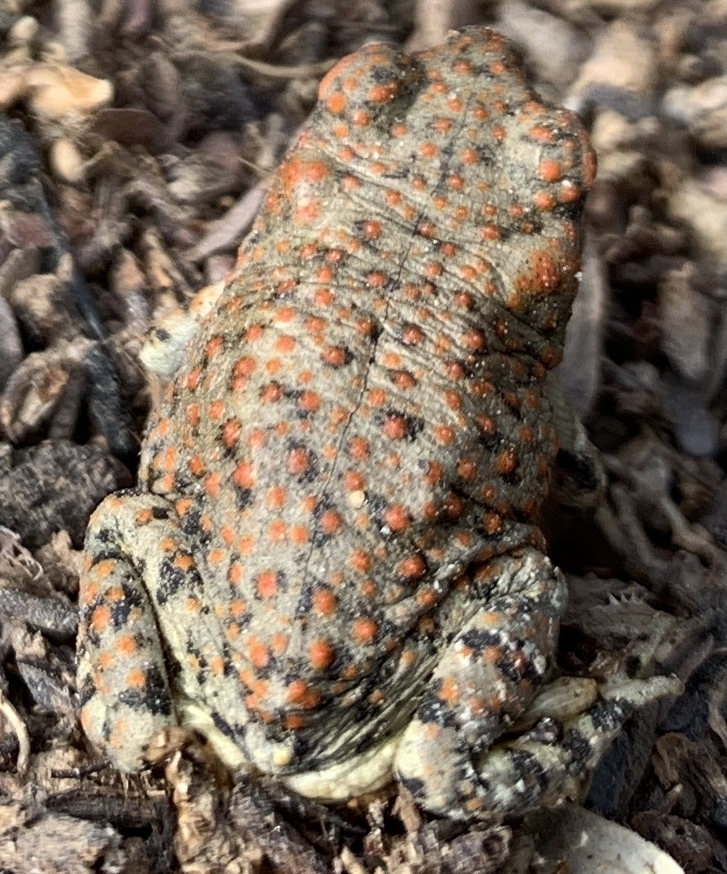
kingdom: Animalia
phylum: Chordata
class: Amphibia
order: Anura
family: Bufonidae
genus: Anaxyrus
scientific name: Anaxyrus punctatus
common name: Red-spotted toad
